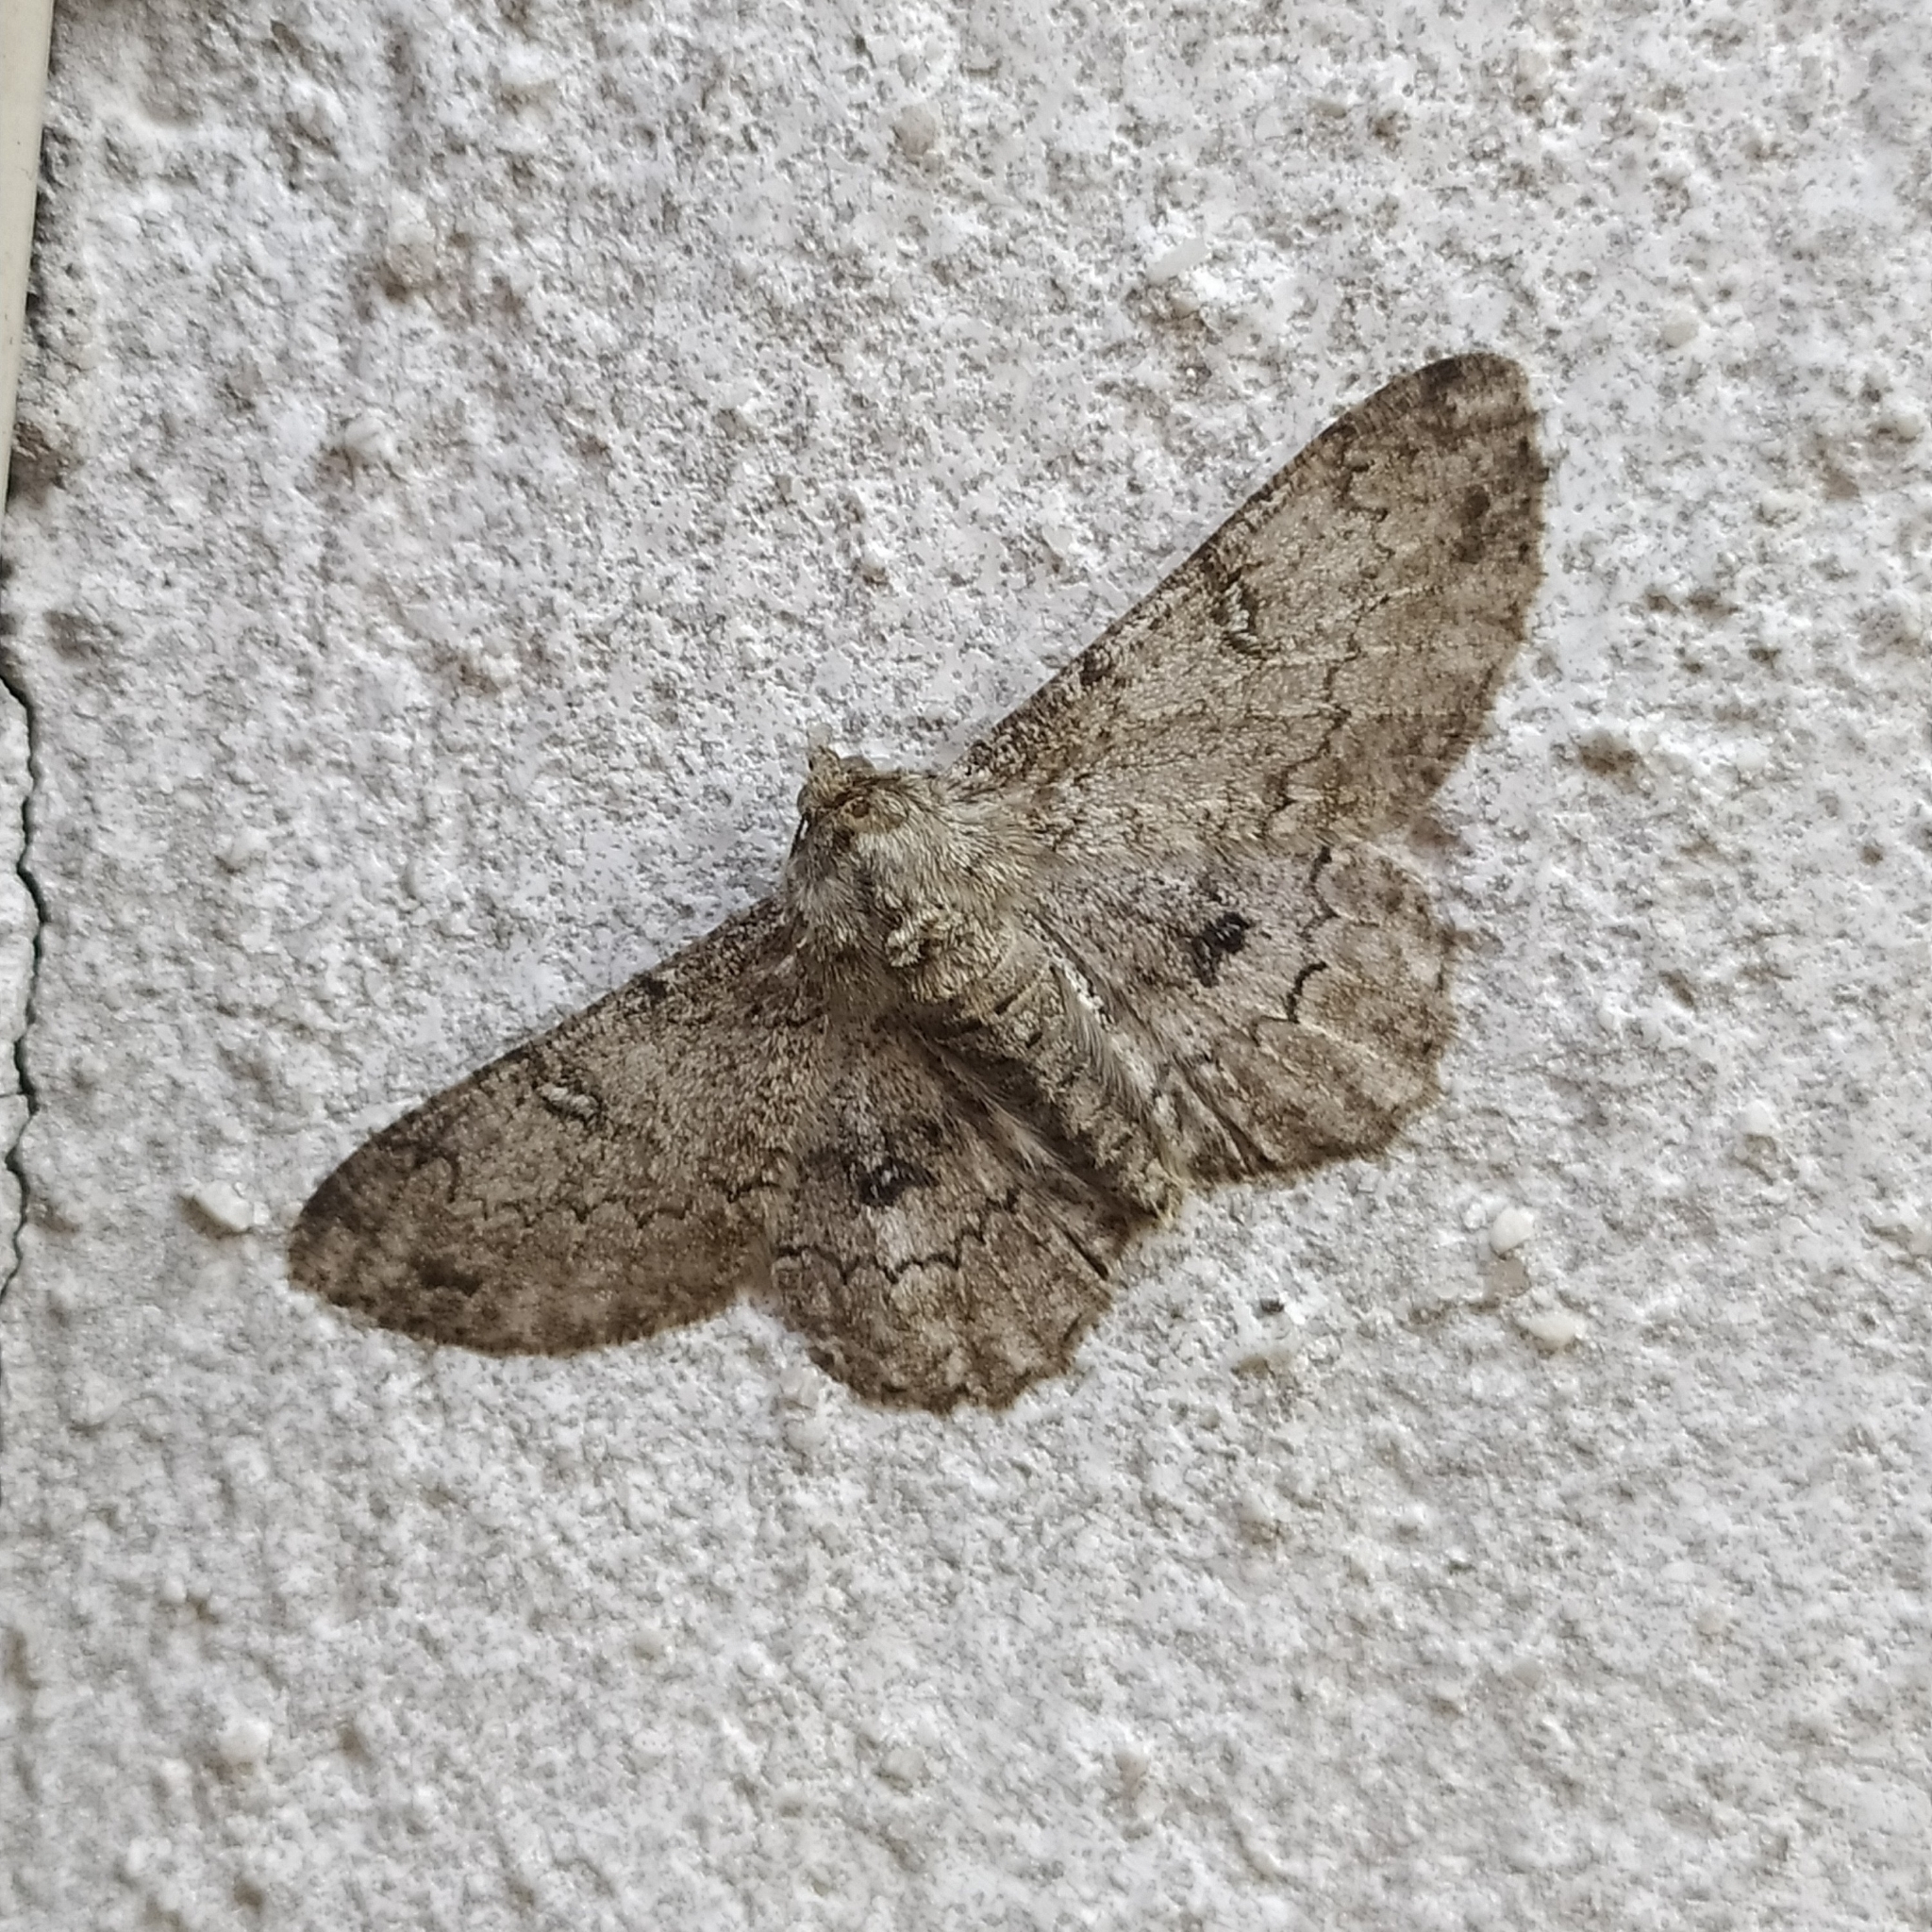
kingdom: Animalia
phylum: Arthropoda
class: Insecta
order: Lepidoptera
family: Geometridae
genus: Ascotis
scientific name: Ascotis selenaria
